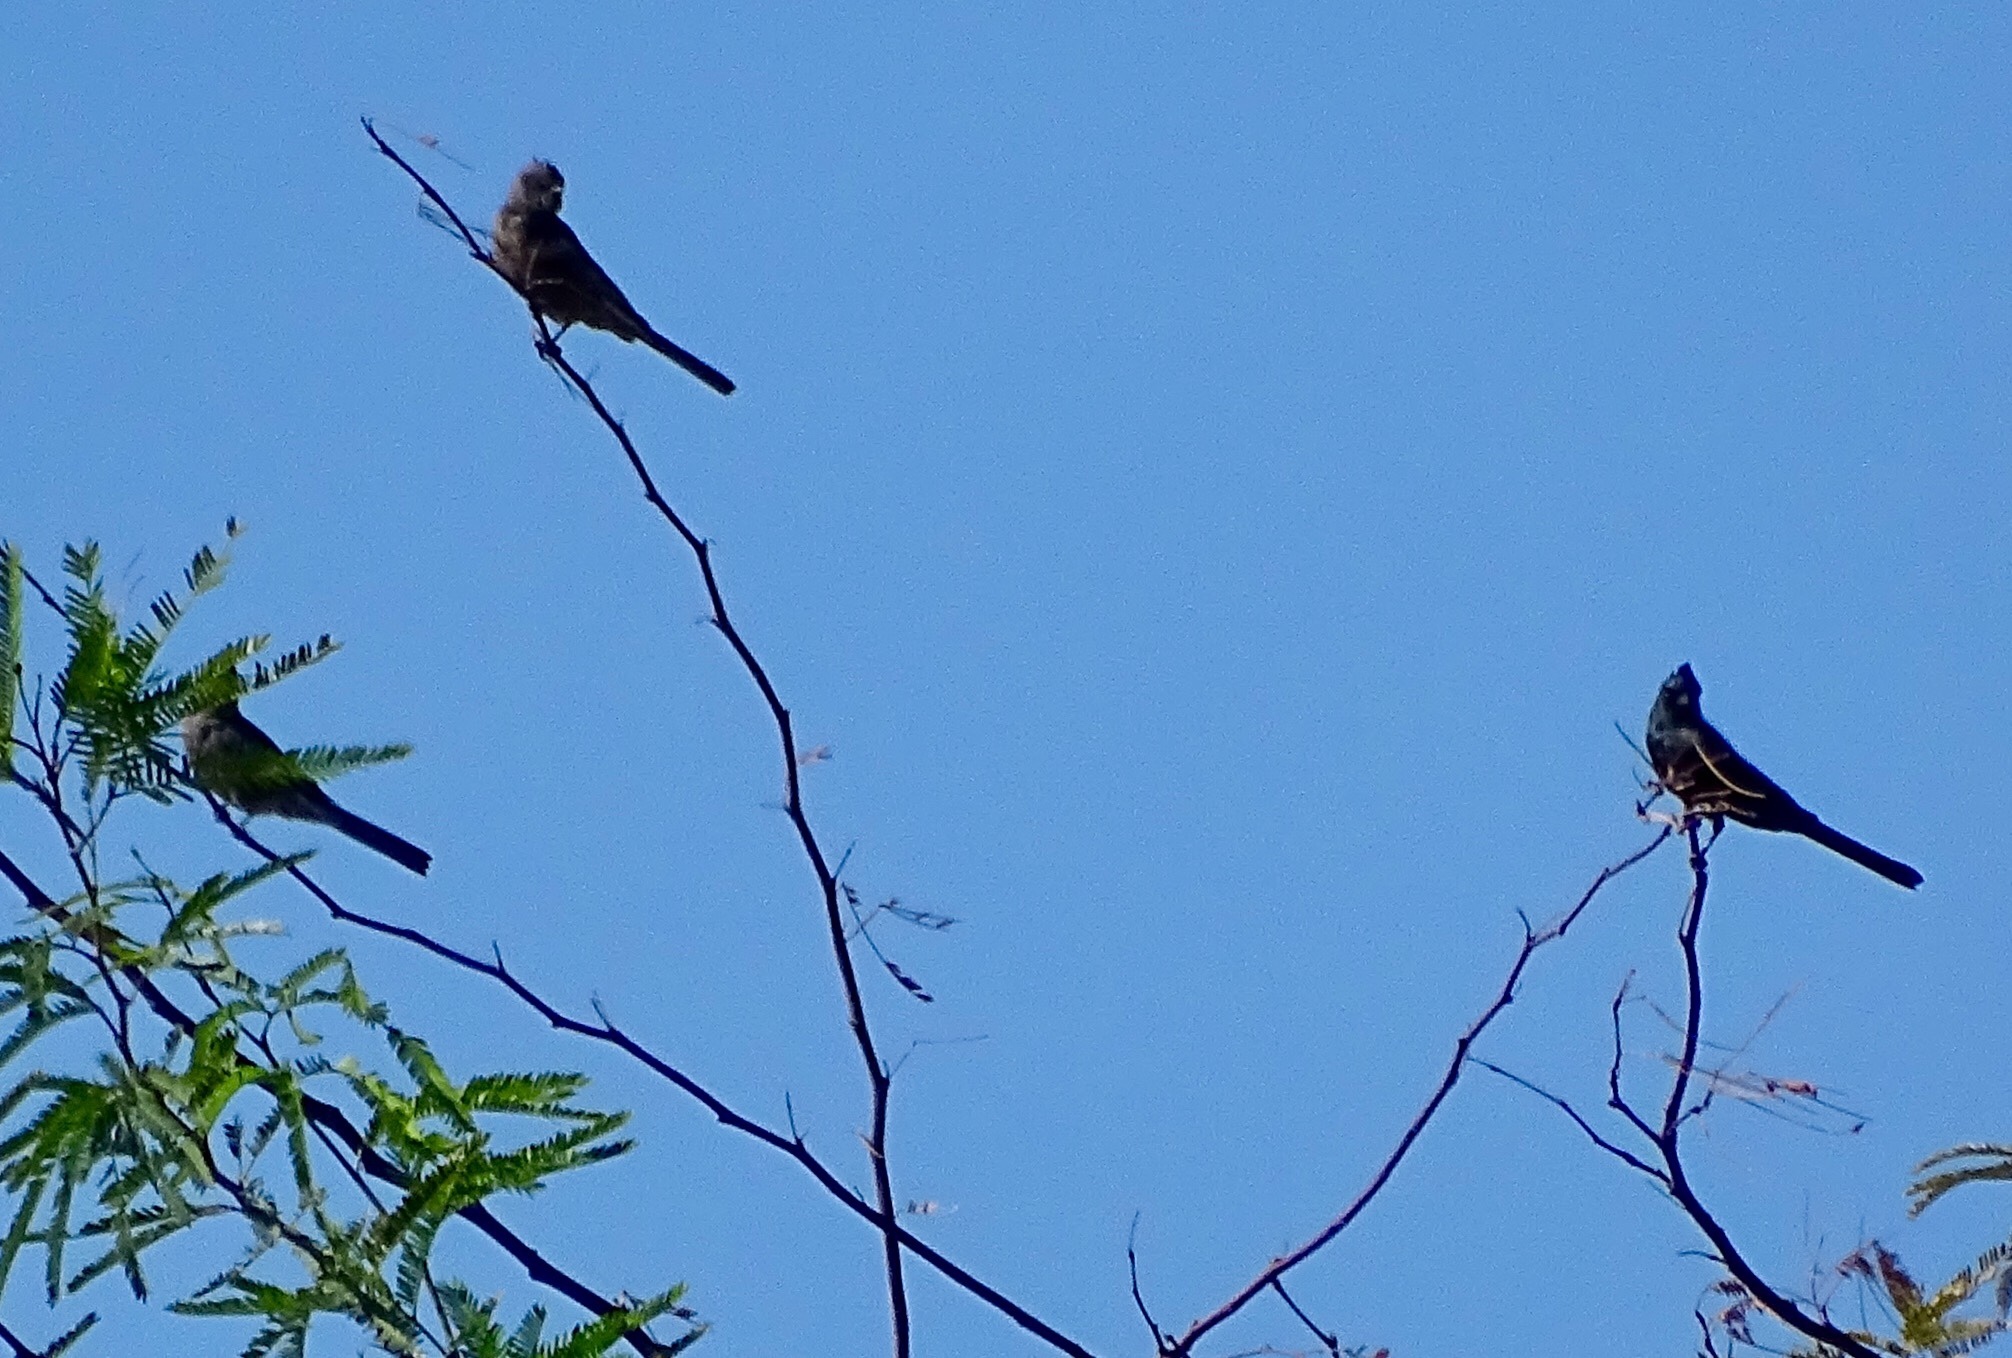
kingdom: Animalia
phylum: Chordata
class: Aves
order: Passeriformes
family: Ptilogonatidae
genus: Phainopepla
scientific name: Phainopepla nitens
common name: Phainopepla
